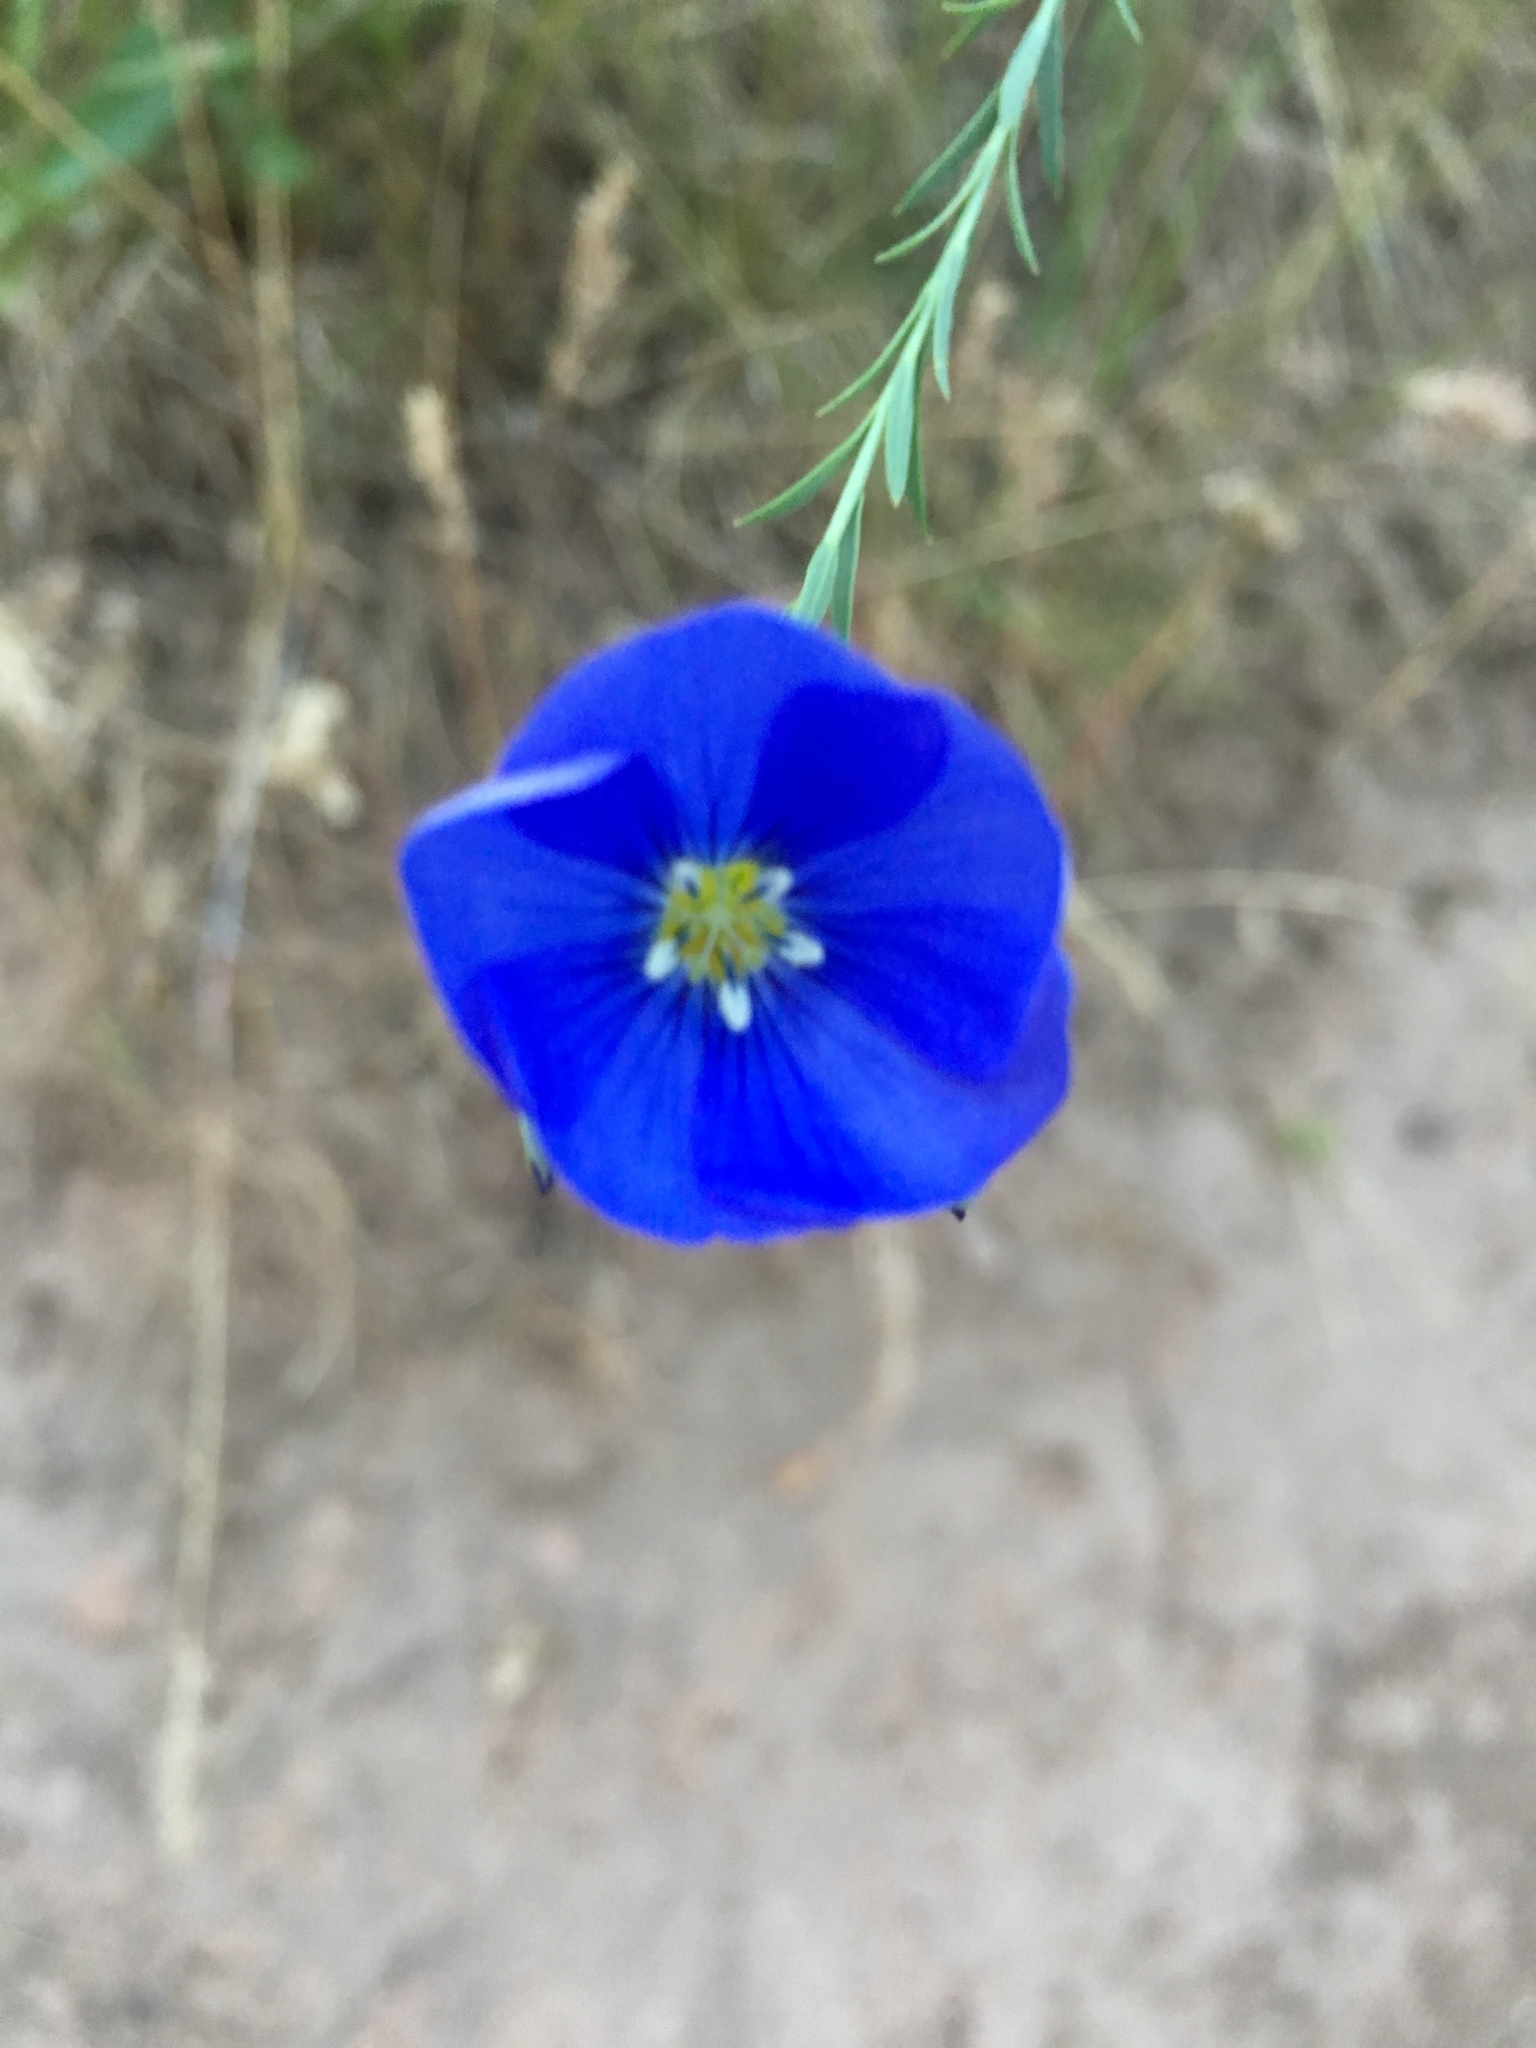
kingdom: Plantae
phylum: Tracheophyta
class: Magnoliopsida
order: Malpighiales
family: Linaceae
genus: Linum
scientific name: Linum
